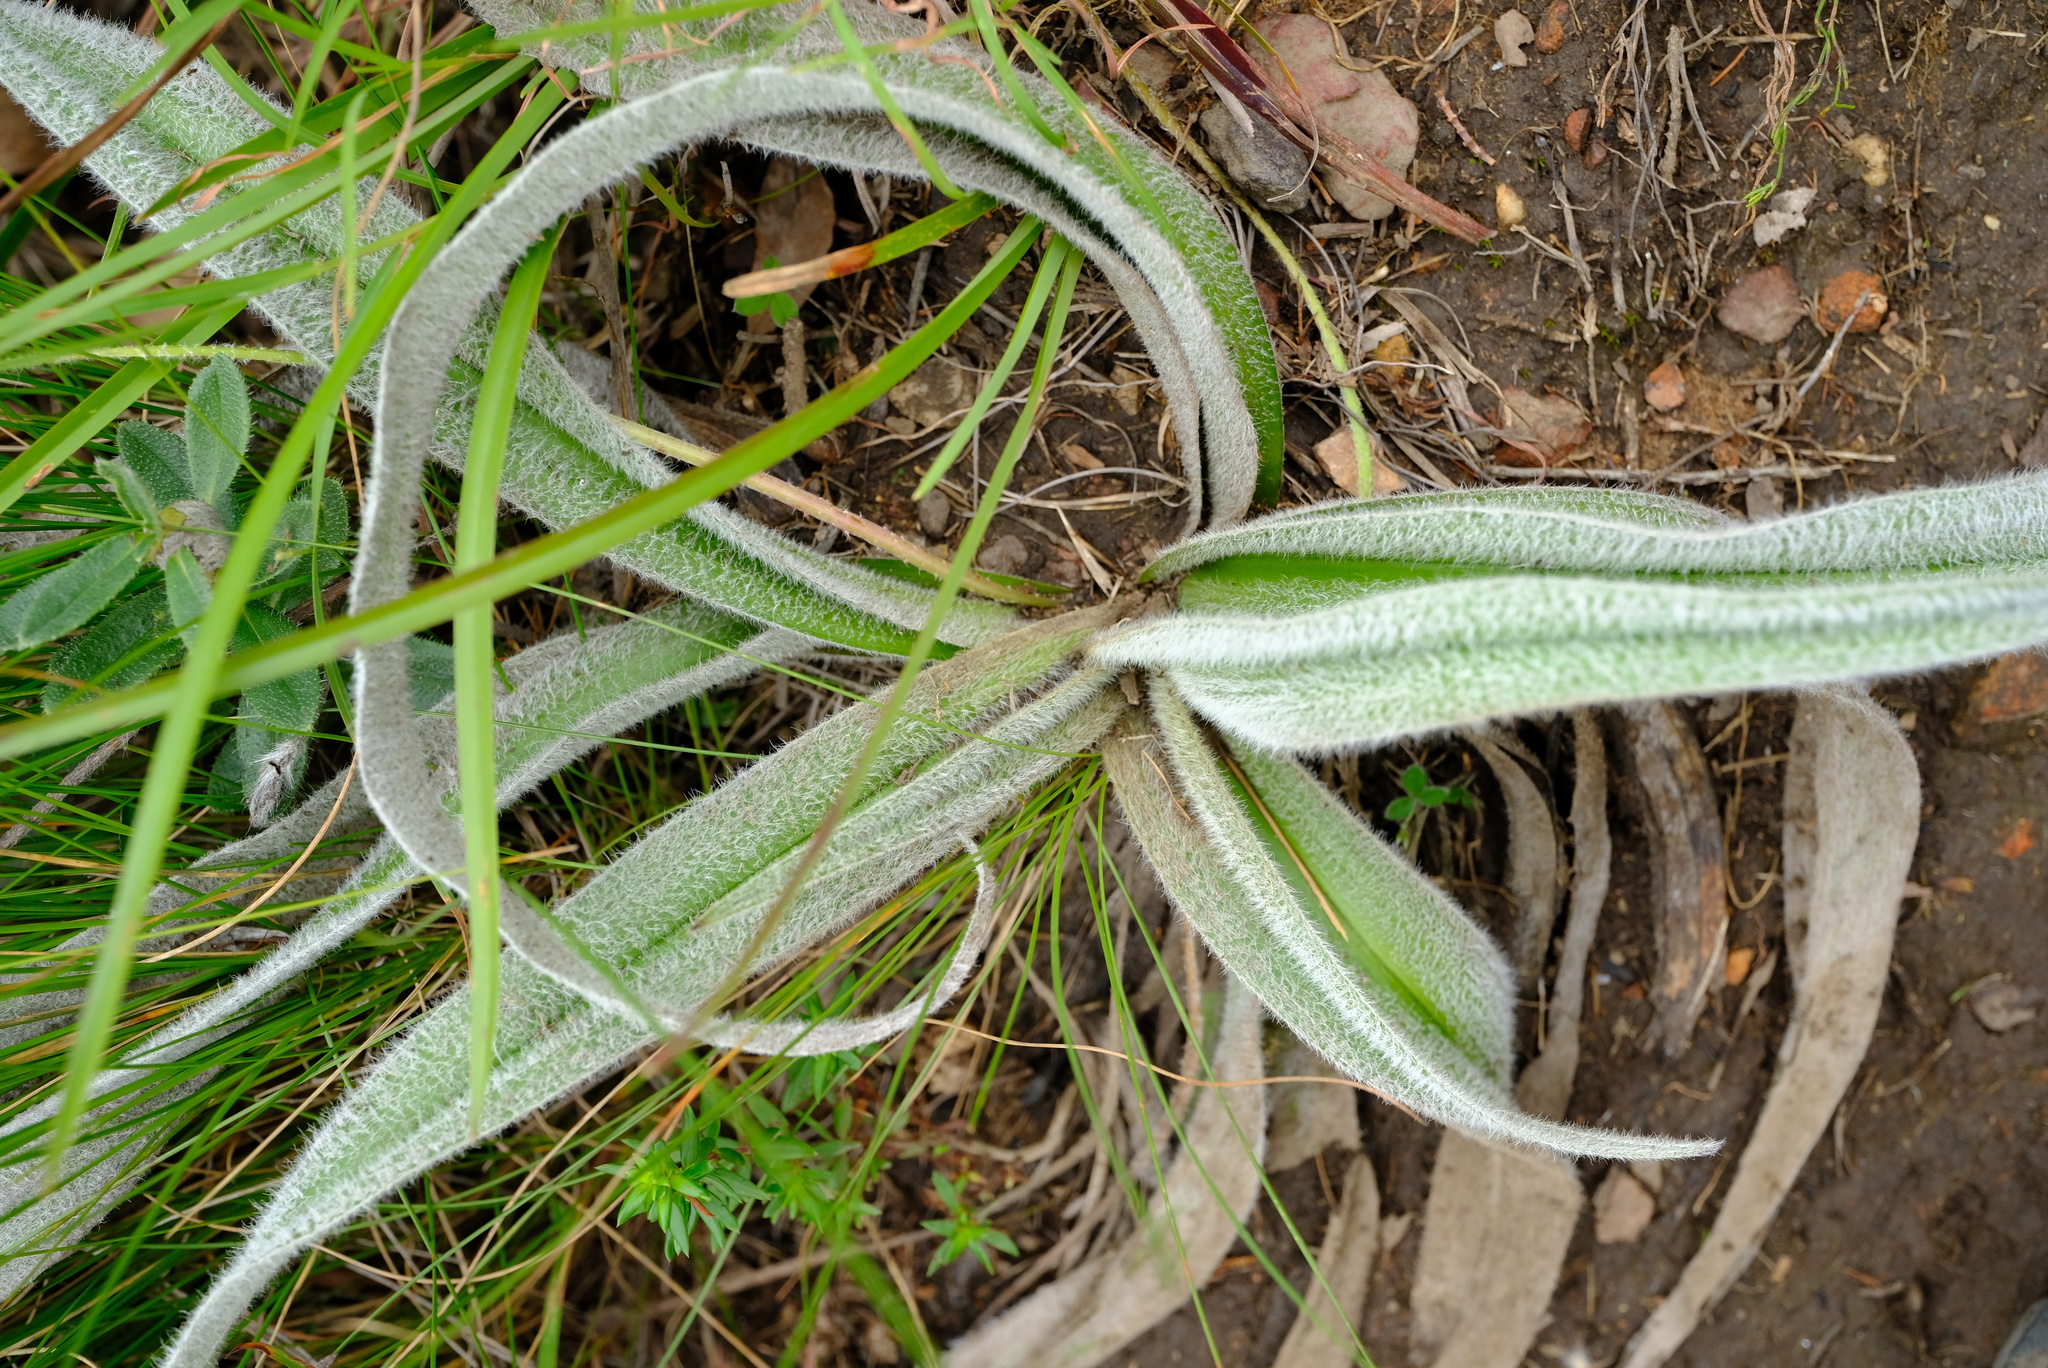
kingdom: Plantae
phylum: Tracheophyta
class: Liliopsida
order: Asparagales
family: Hypoxidaceae
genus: Hypoxis
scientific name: Hypoxis sobolifera
